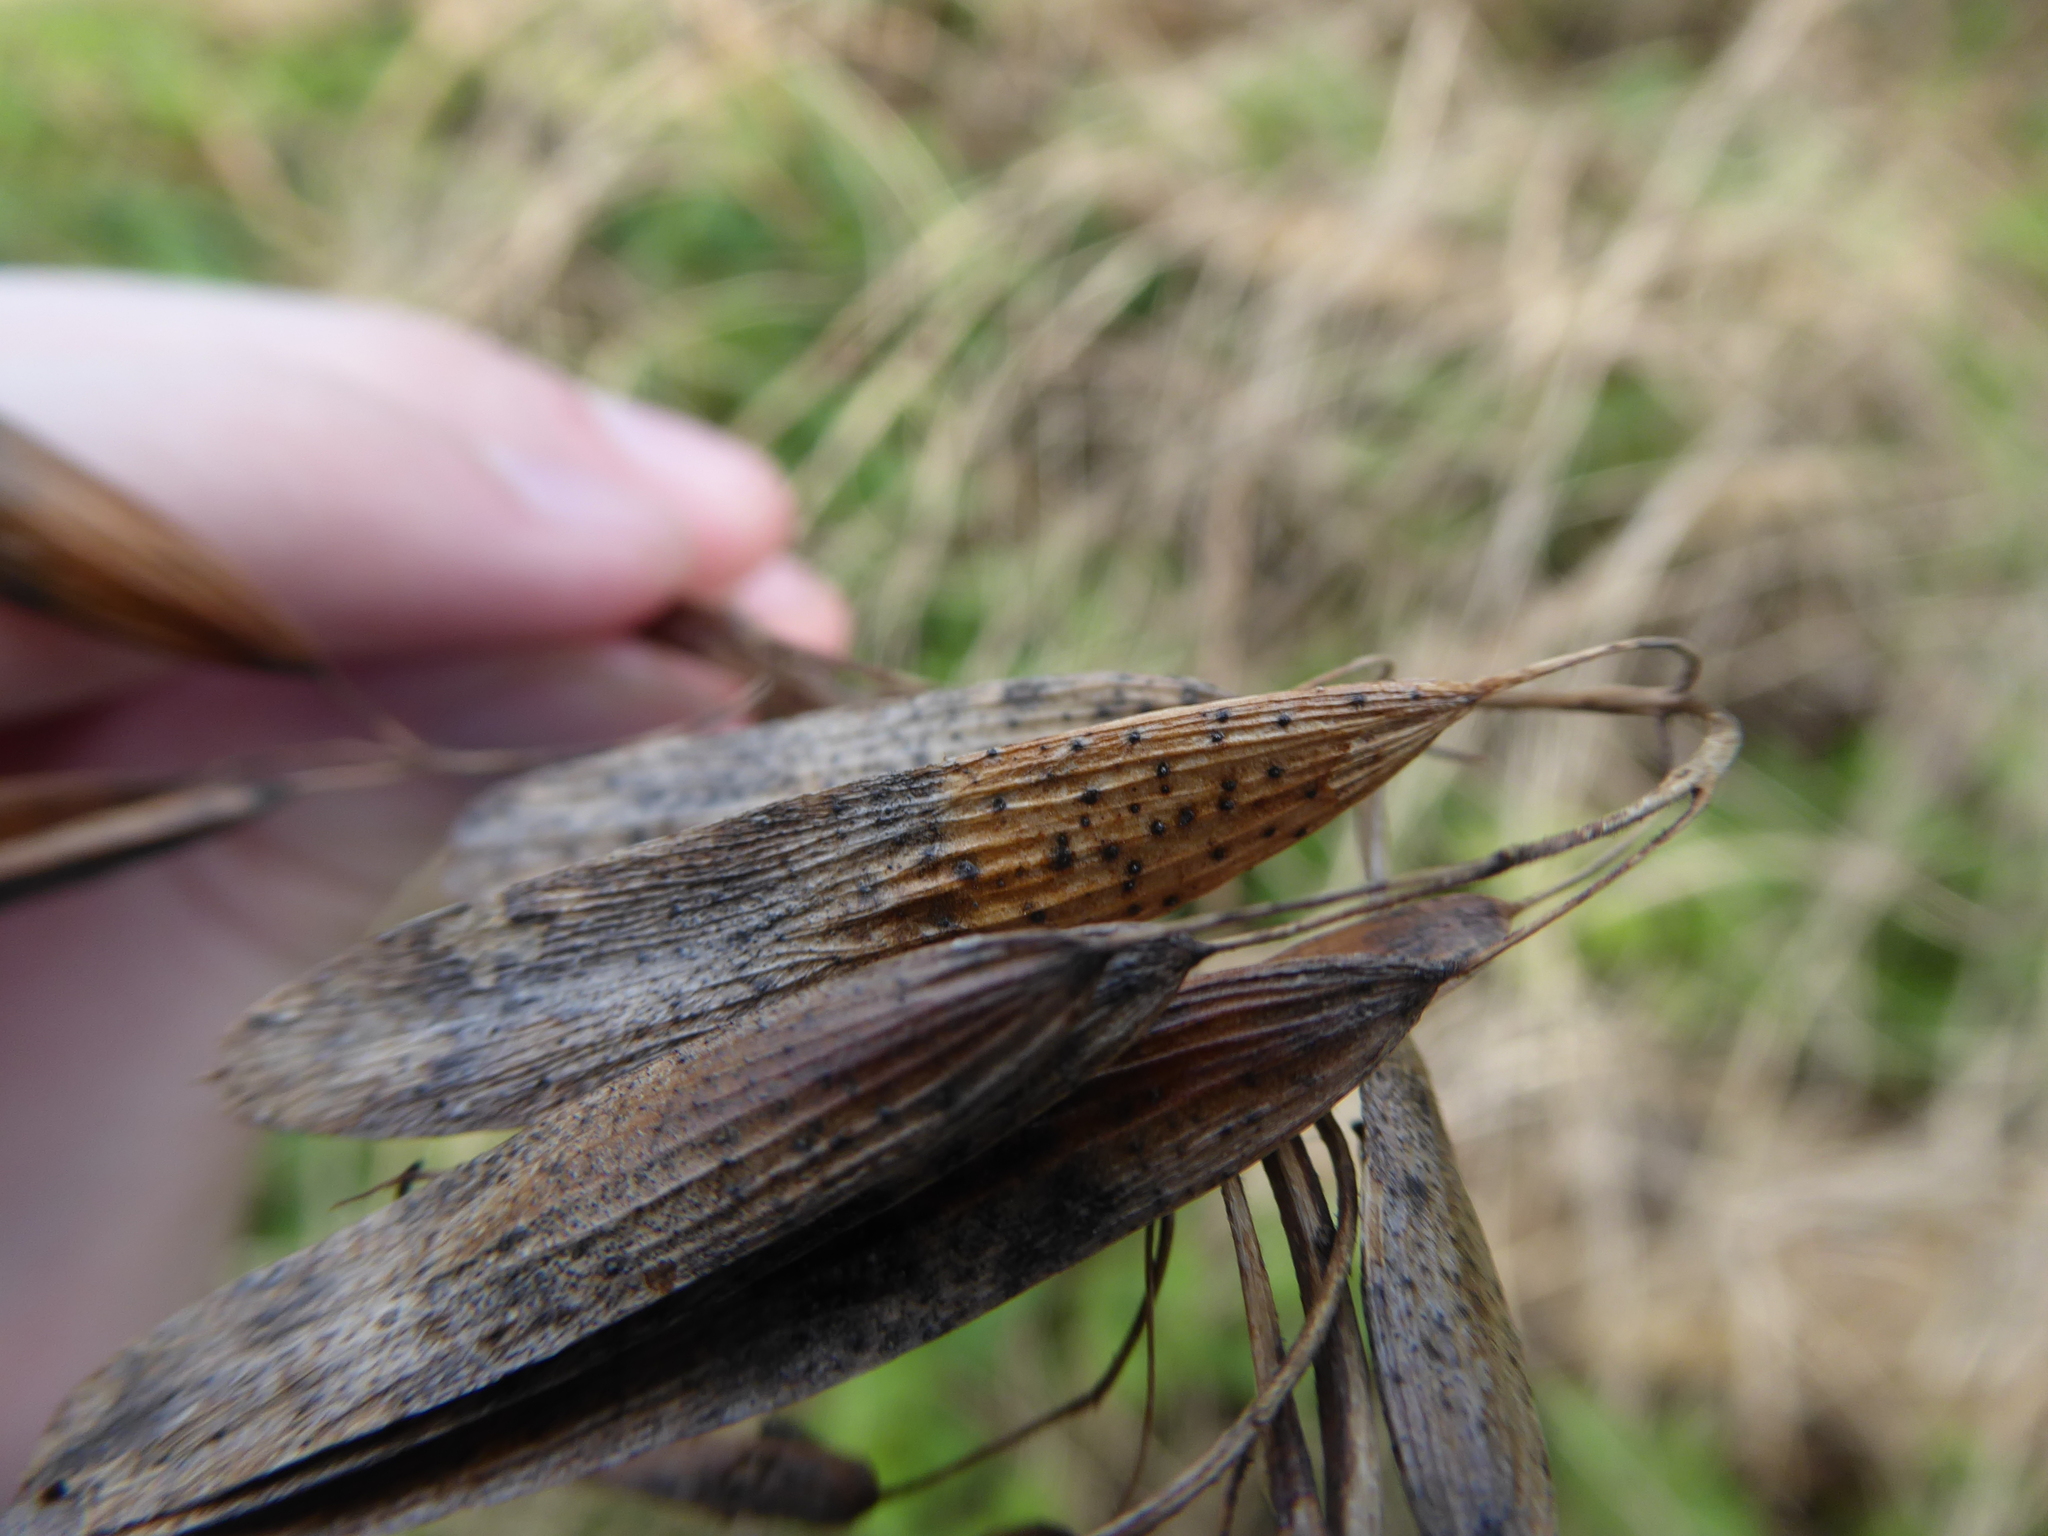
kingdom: Fungi
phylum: Ascomycota
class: Sordariomycetes
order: Diaporthales
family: Diaporthaceae
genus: Diaporthe
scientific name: Diaporthe samaricola
